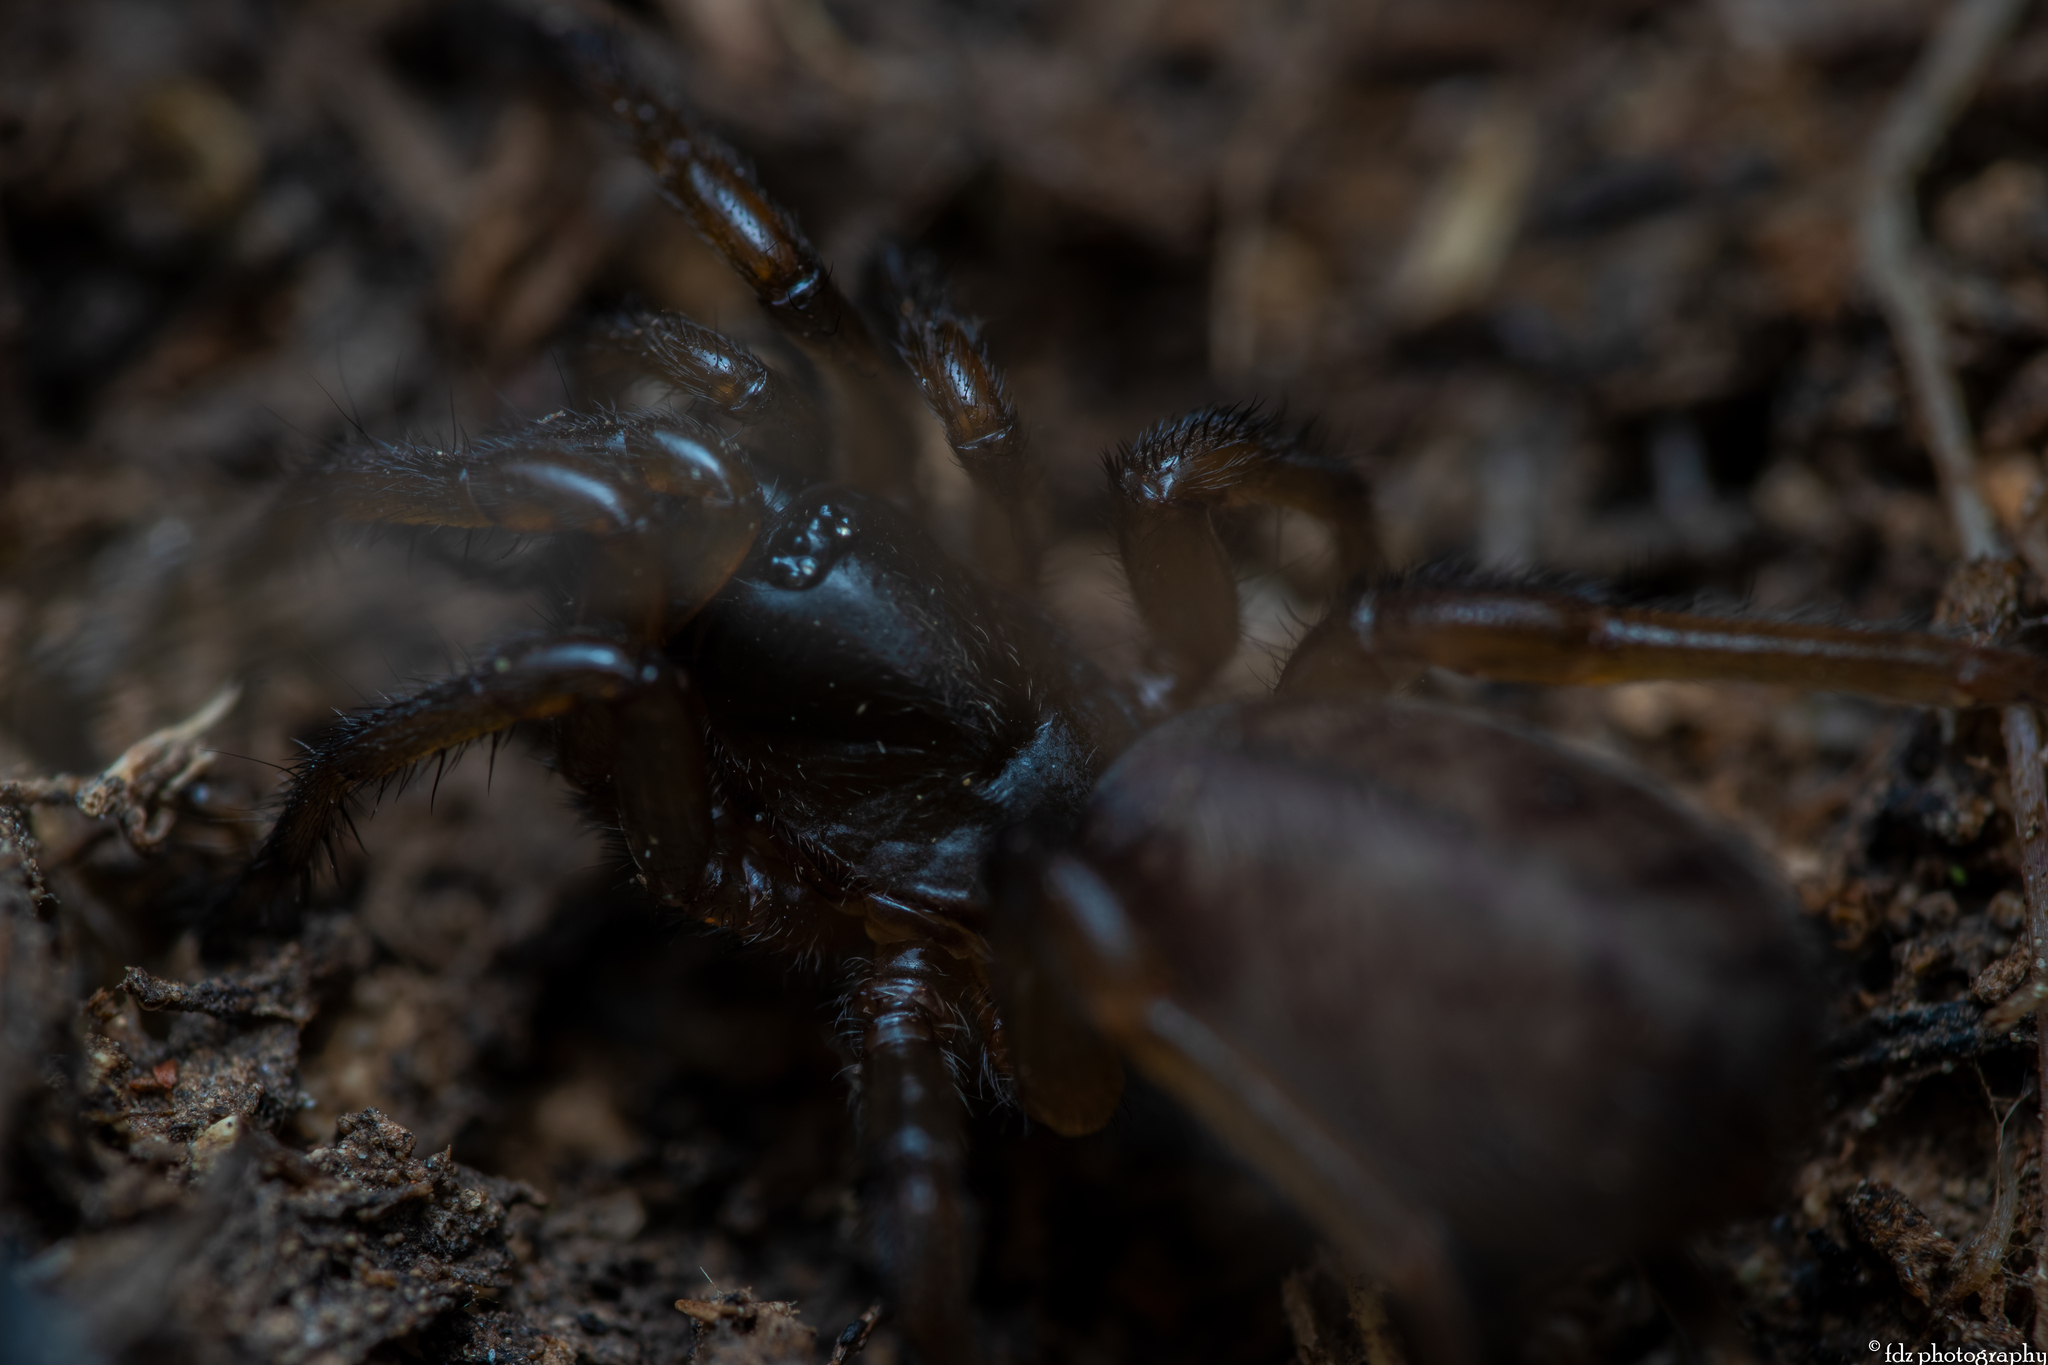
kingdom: Animalia
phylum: Arthropoda
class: Arachnida
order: Araneae
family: Nemesiidae
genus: Iberesia
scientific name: Iberesia castillana
